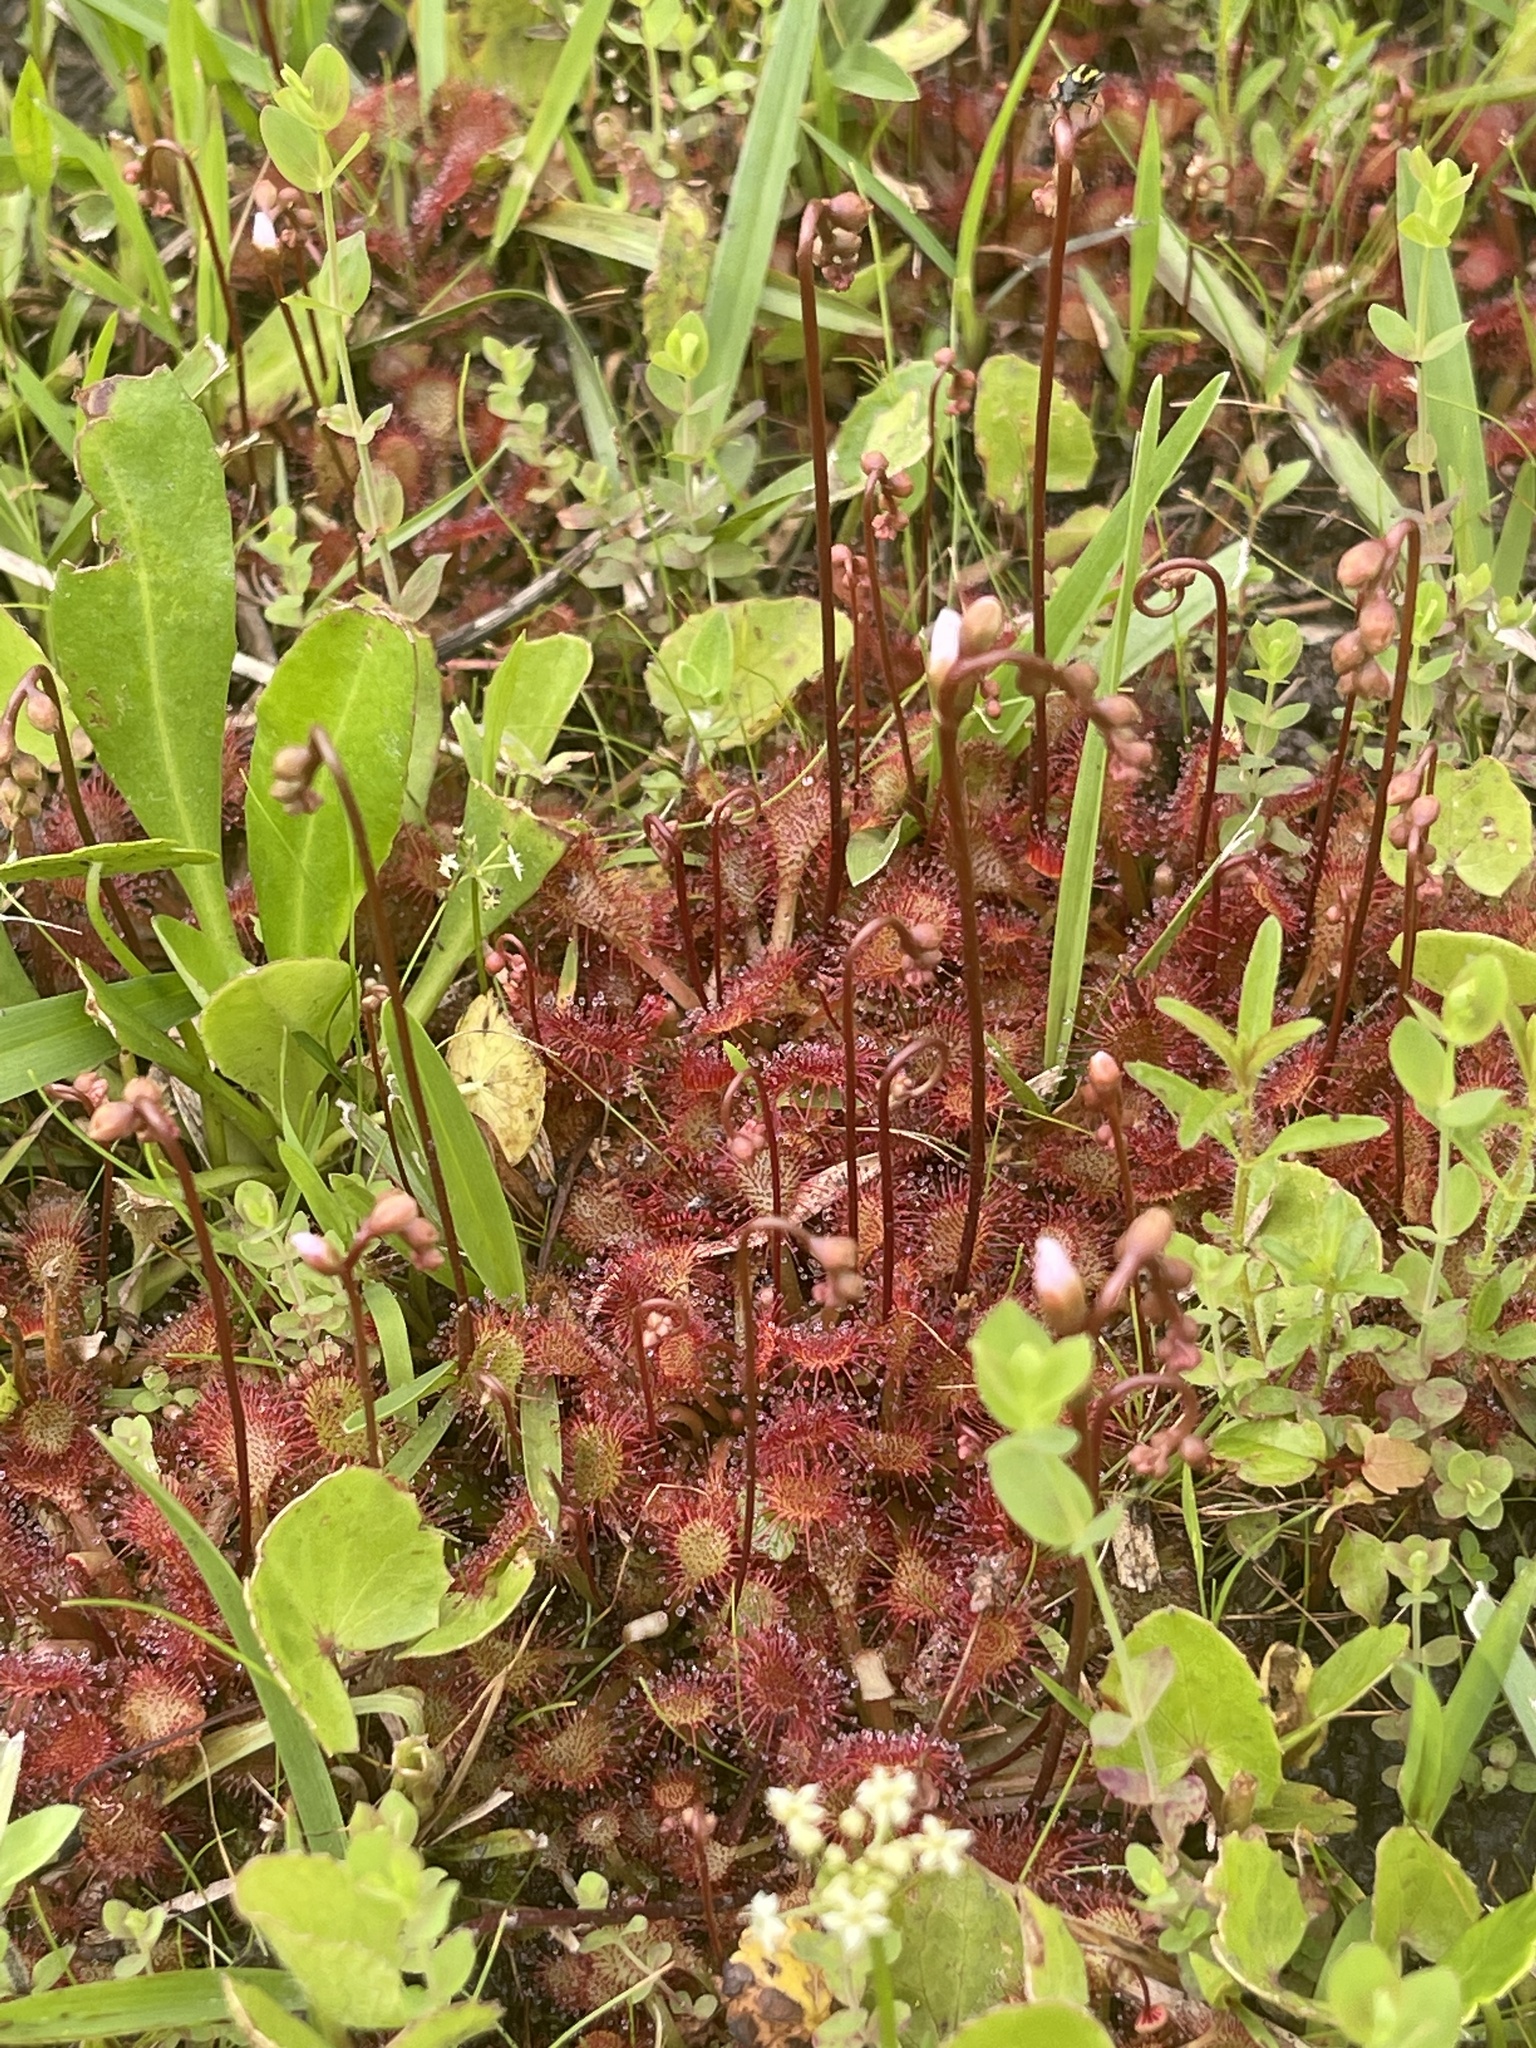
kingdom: Plantae
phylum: Tracheophyta
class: Magnoliopsida
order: Caryophyllales
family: Droseraceae
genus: Drosera
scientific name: Drosera capillaris
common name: Pink sundew
